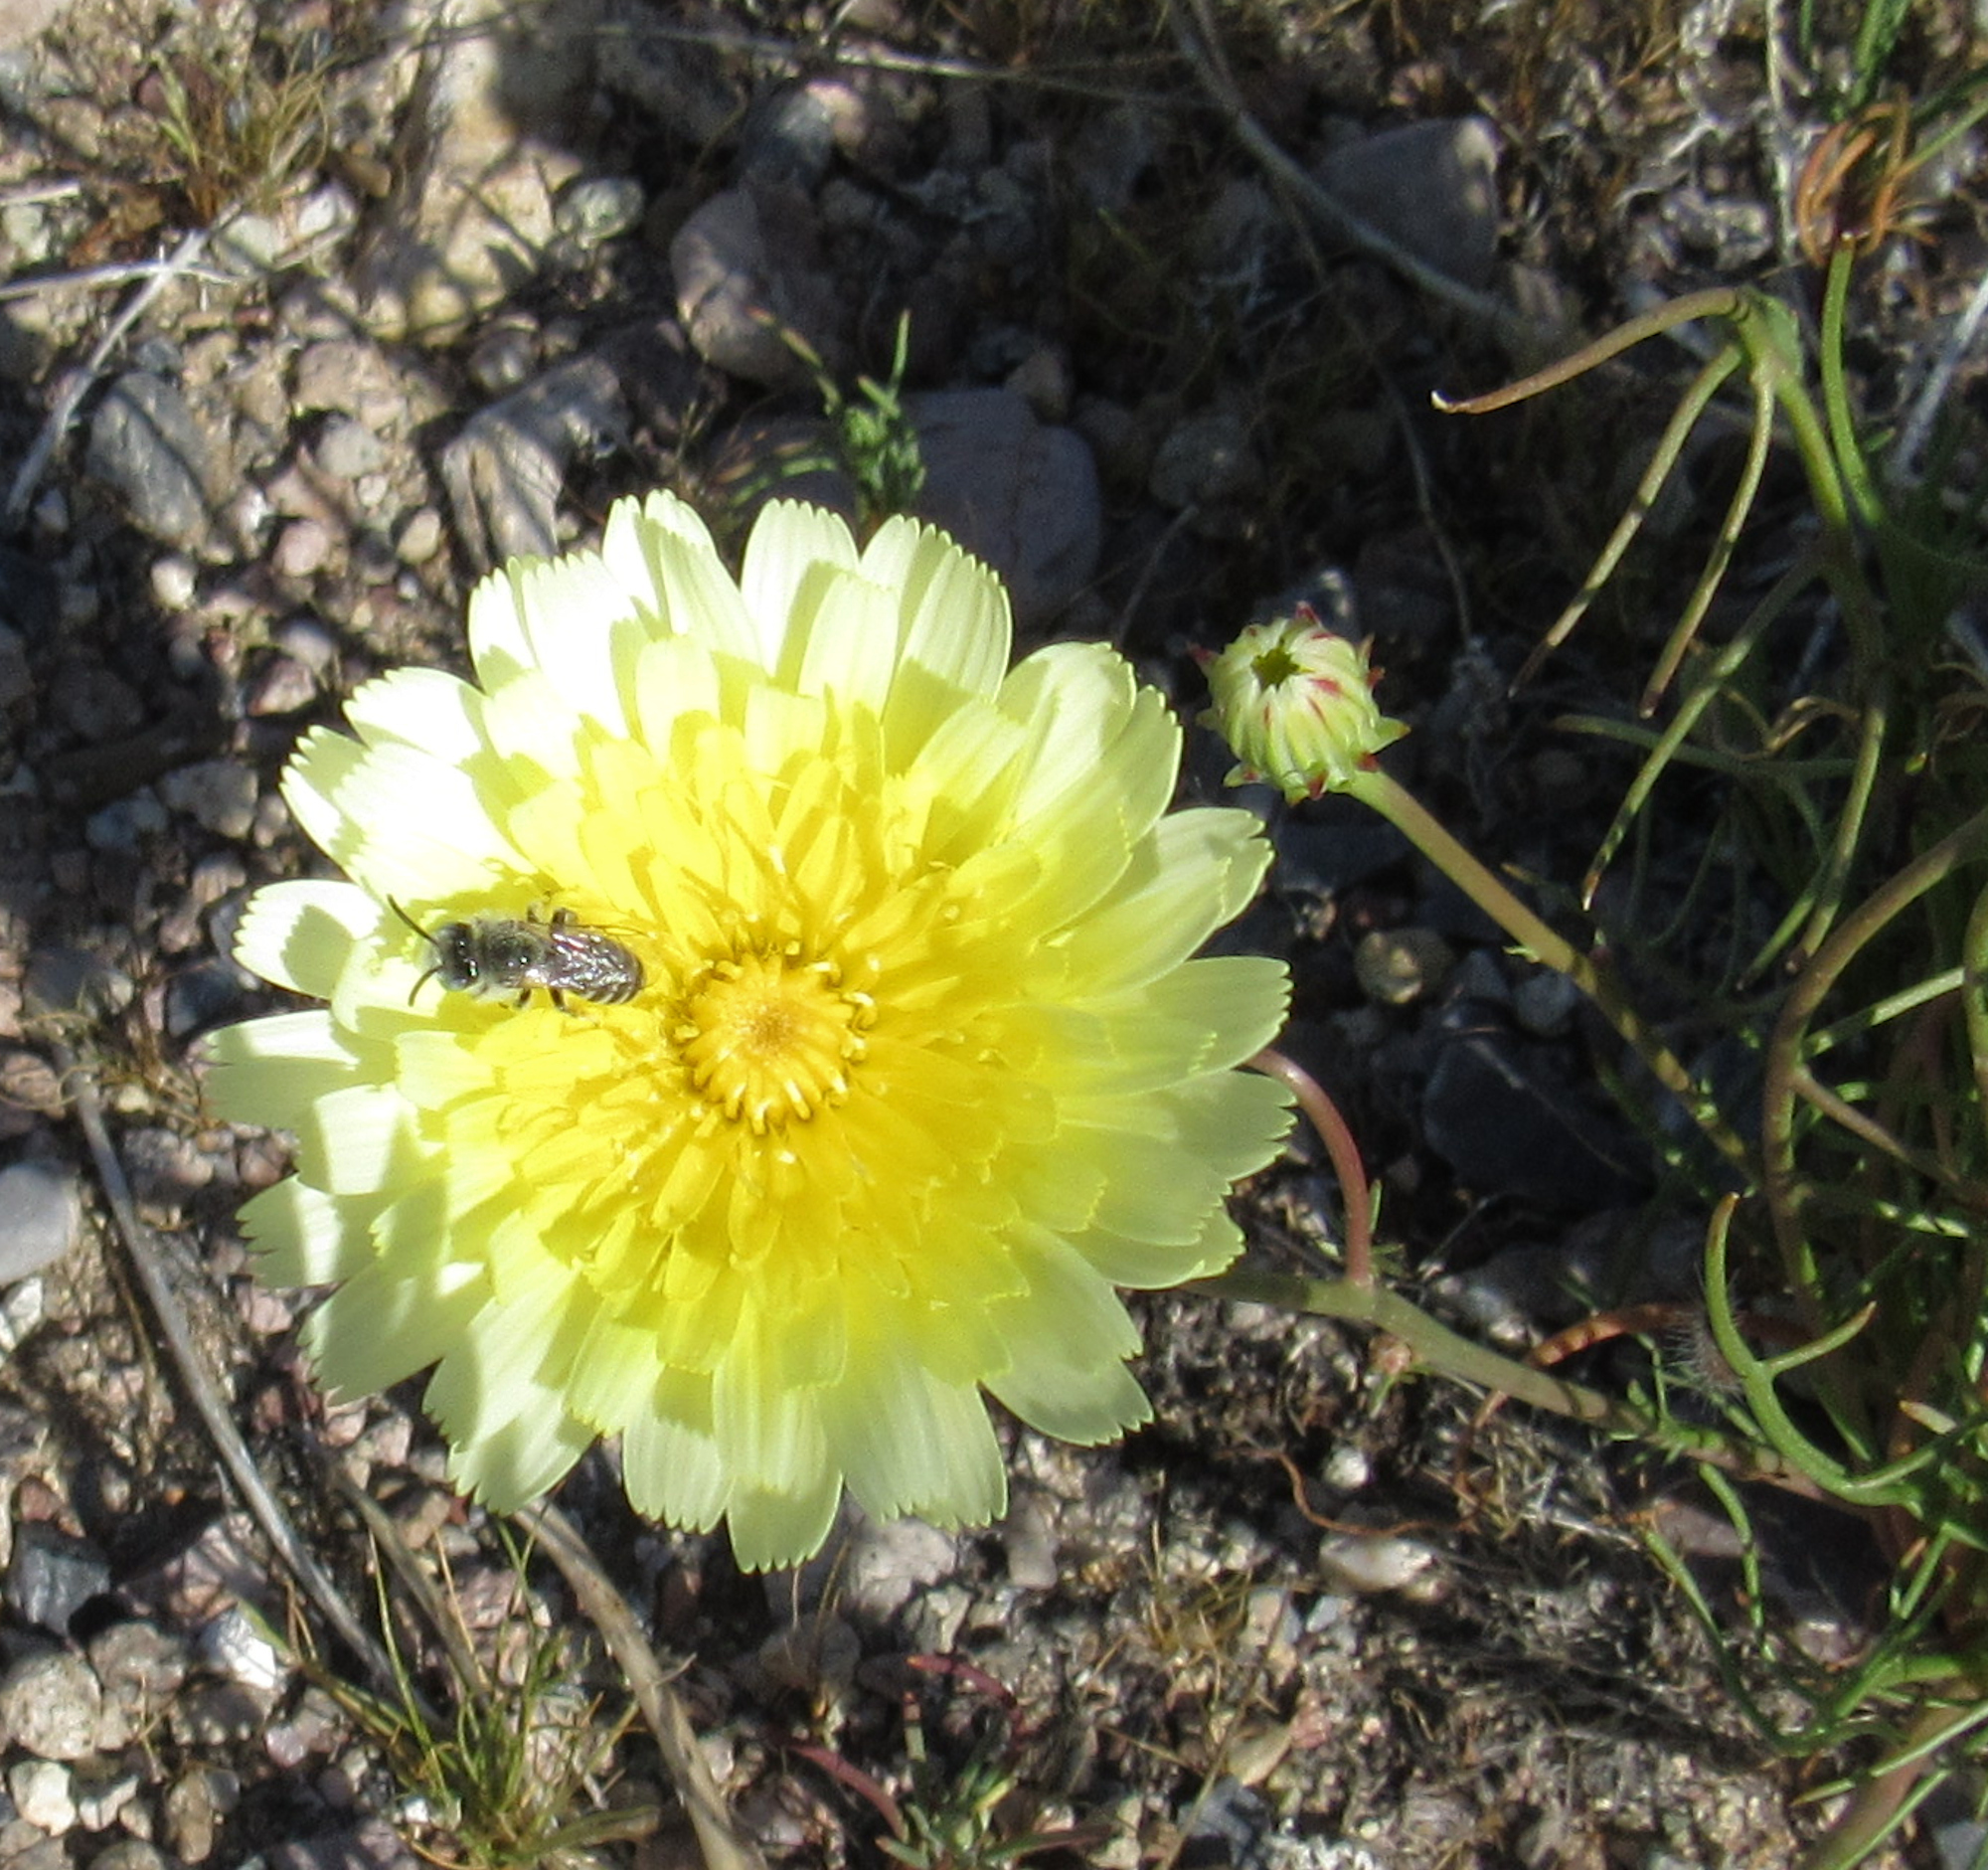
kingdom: Plantae
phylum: Tracheophyta
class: Magnoliopsida
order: Asterales
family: Asteraceae
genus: Malacothrix
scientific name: Malacothrix glabrata
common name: Smooth desert-dandelion
